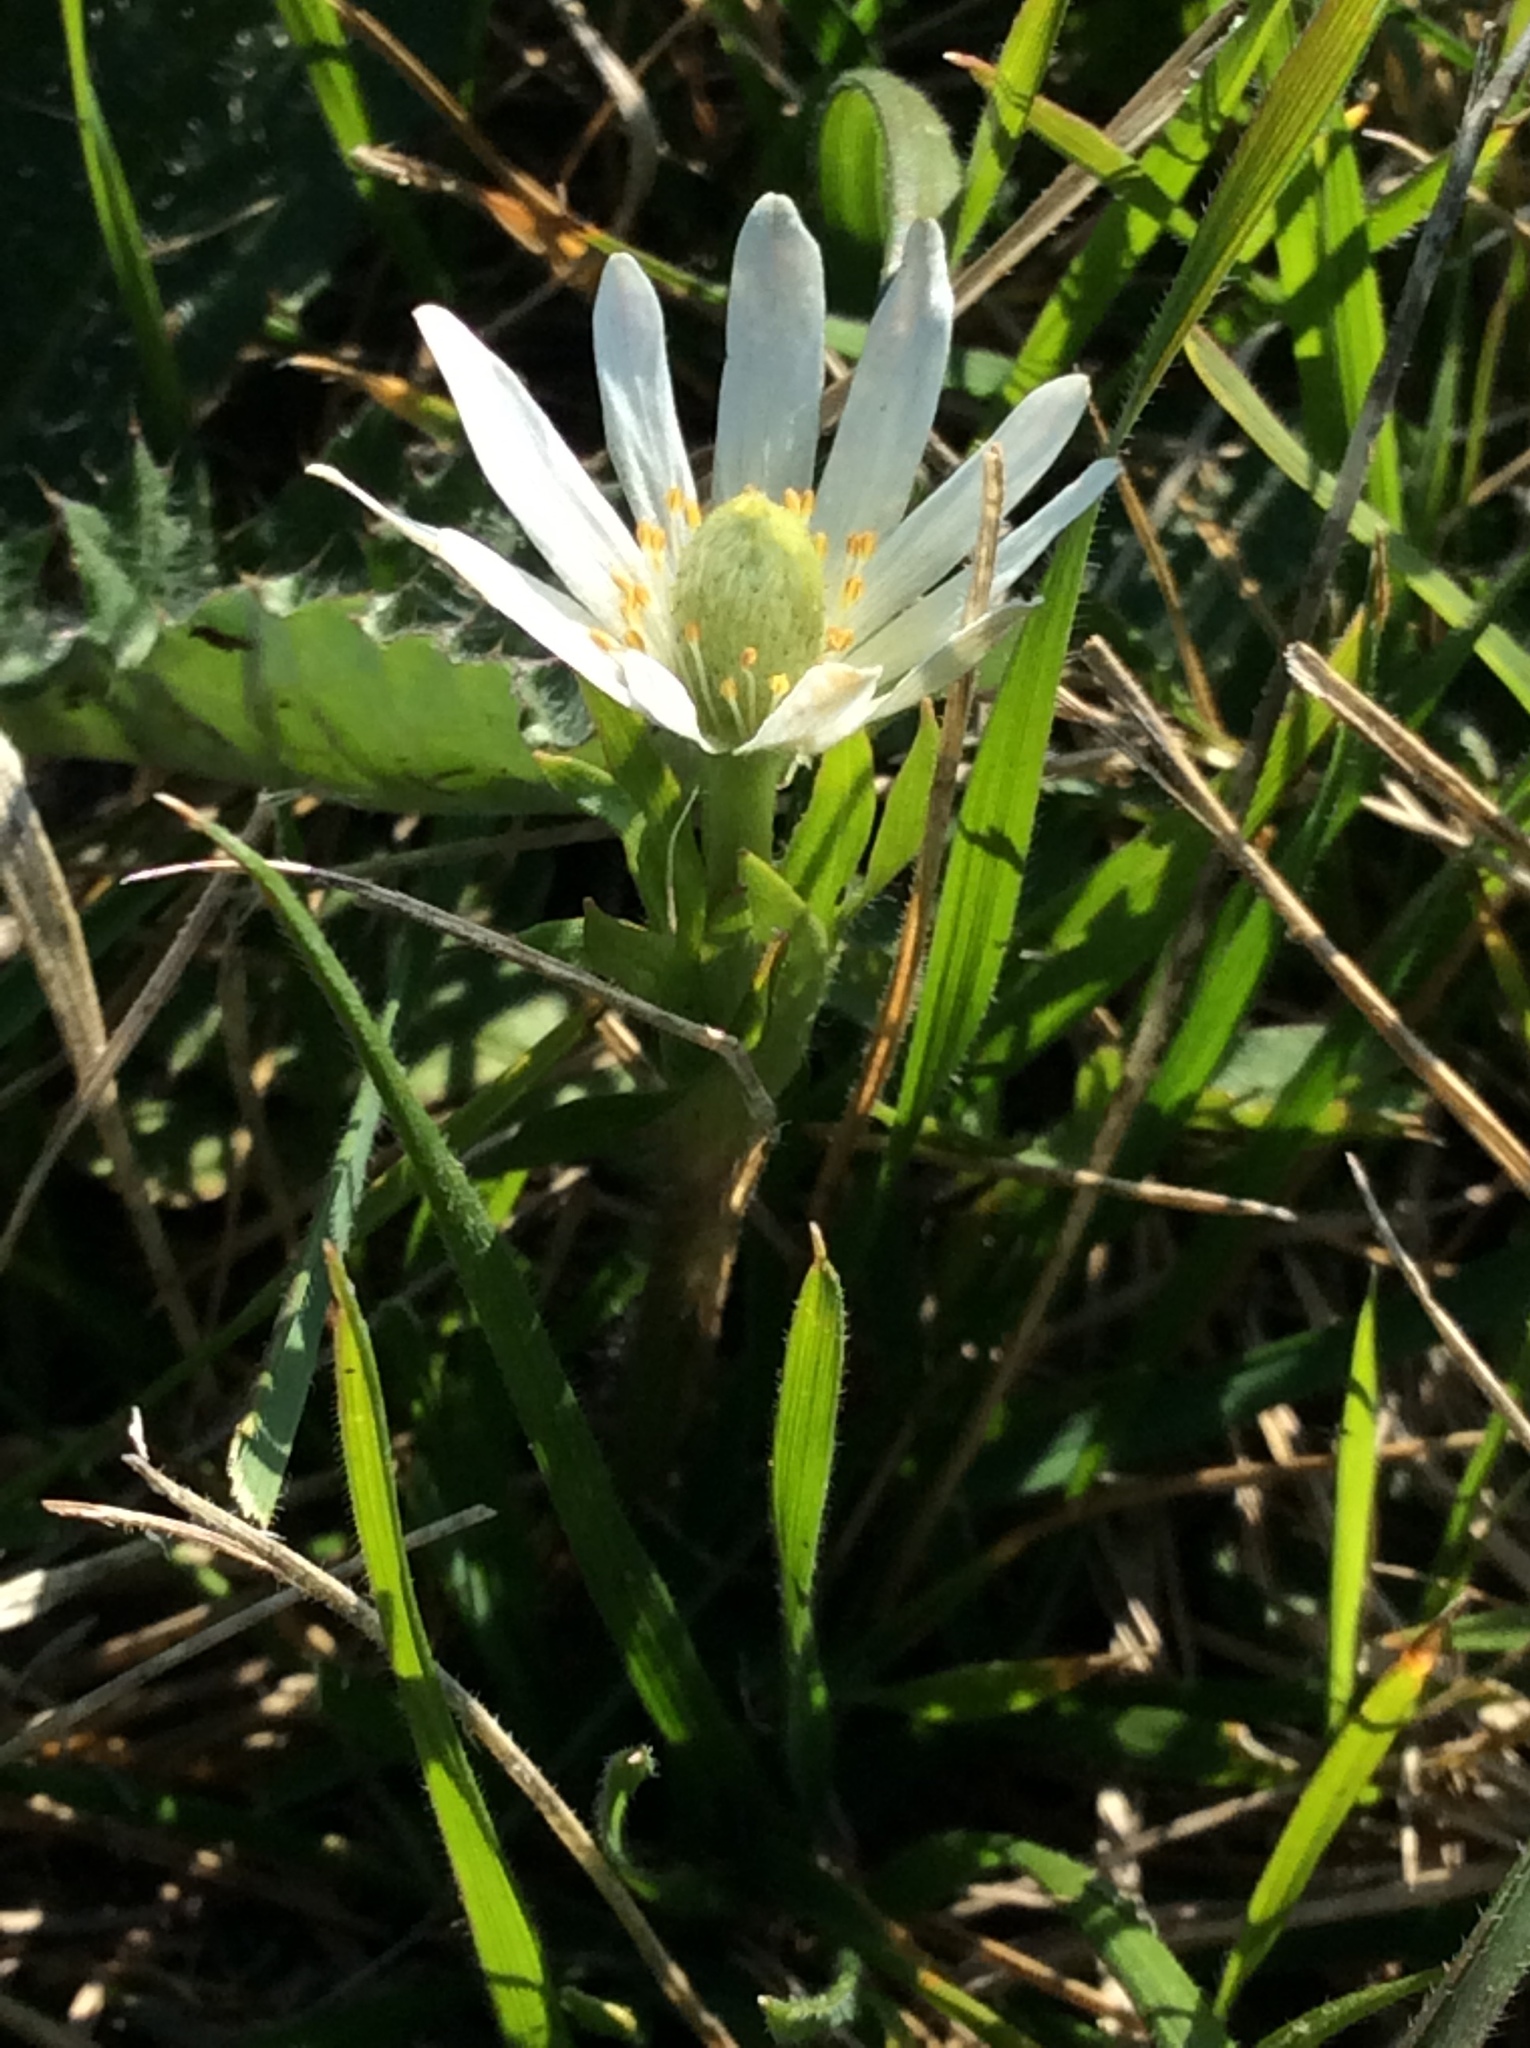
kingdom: Plantae
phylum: Tracheophyta
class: Magnoliopsida
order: Ranunculales
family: Ranunculaceae
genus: Anemone
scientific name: Anemone berlandieri
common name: Ten-petal anemone
